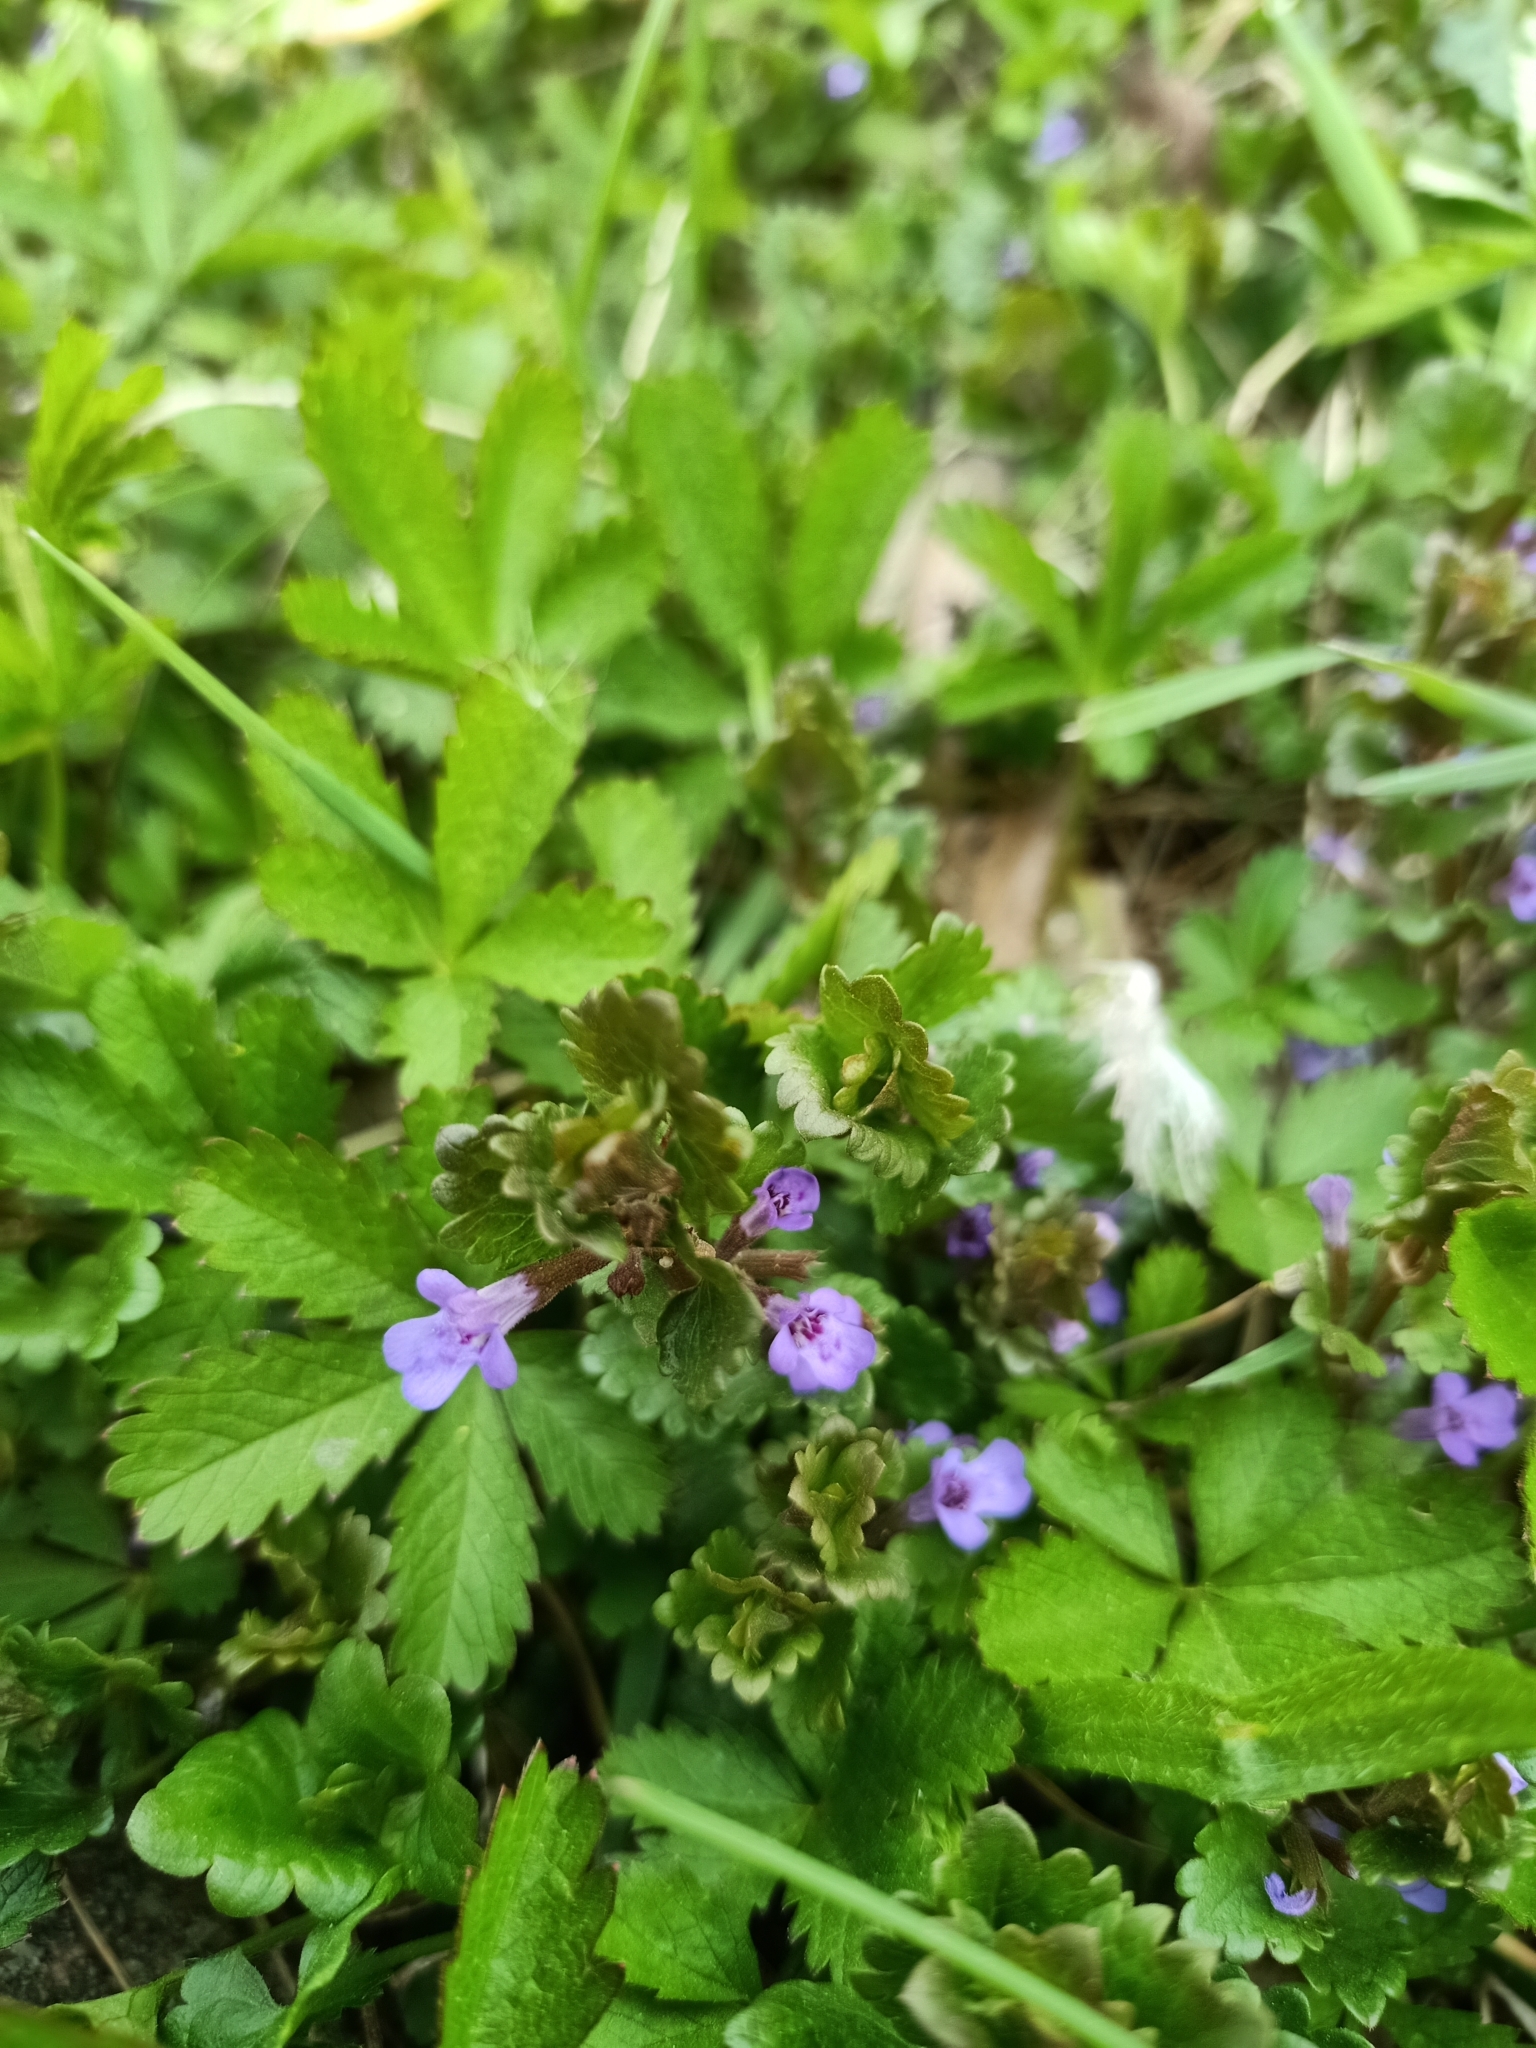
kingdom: Plantae
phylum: Tracheophyta
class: Magnoliopsida
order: Lamiales
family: Lamiaceae
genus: Glechoma
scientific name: Glechoma hederacea
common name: Ground ivy
